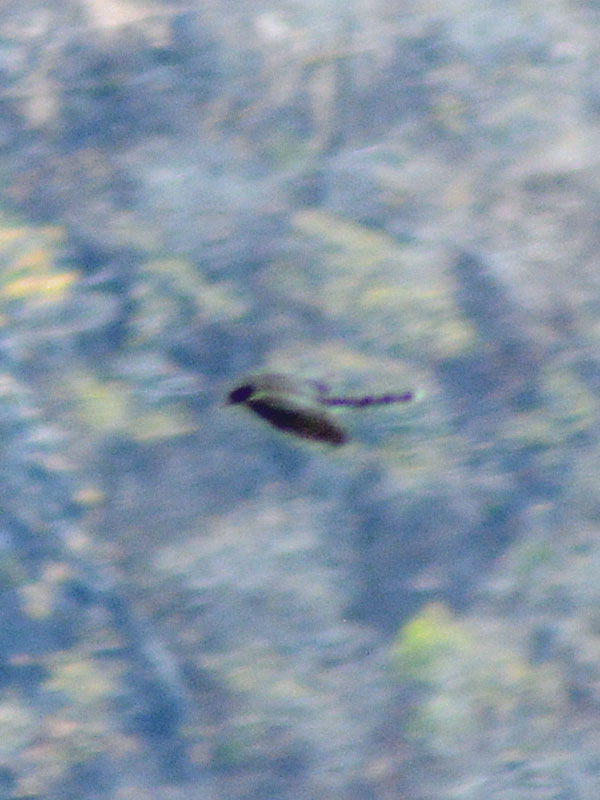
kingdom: Animalia
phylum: Chordata
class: Aves
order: Accipitriformes
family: Accipitridae
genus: Accipiter
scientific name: Accipiter
